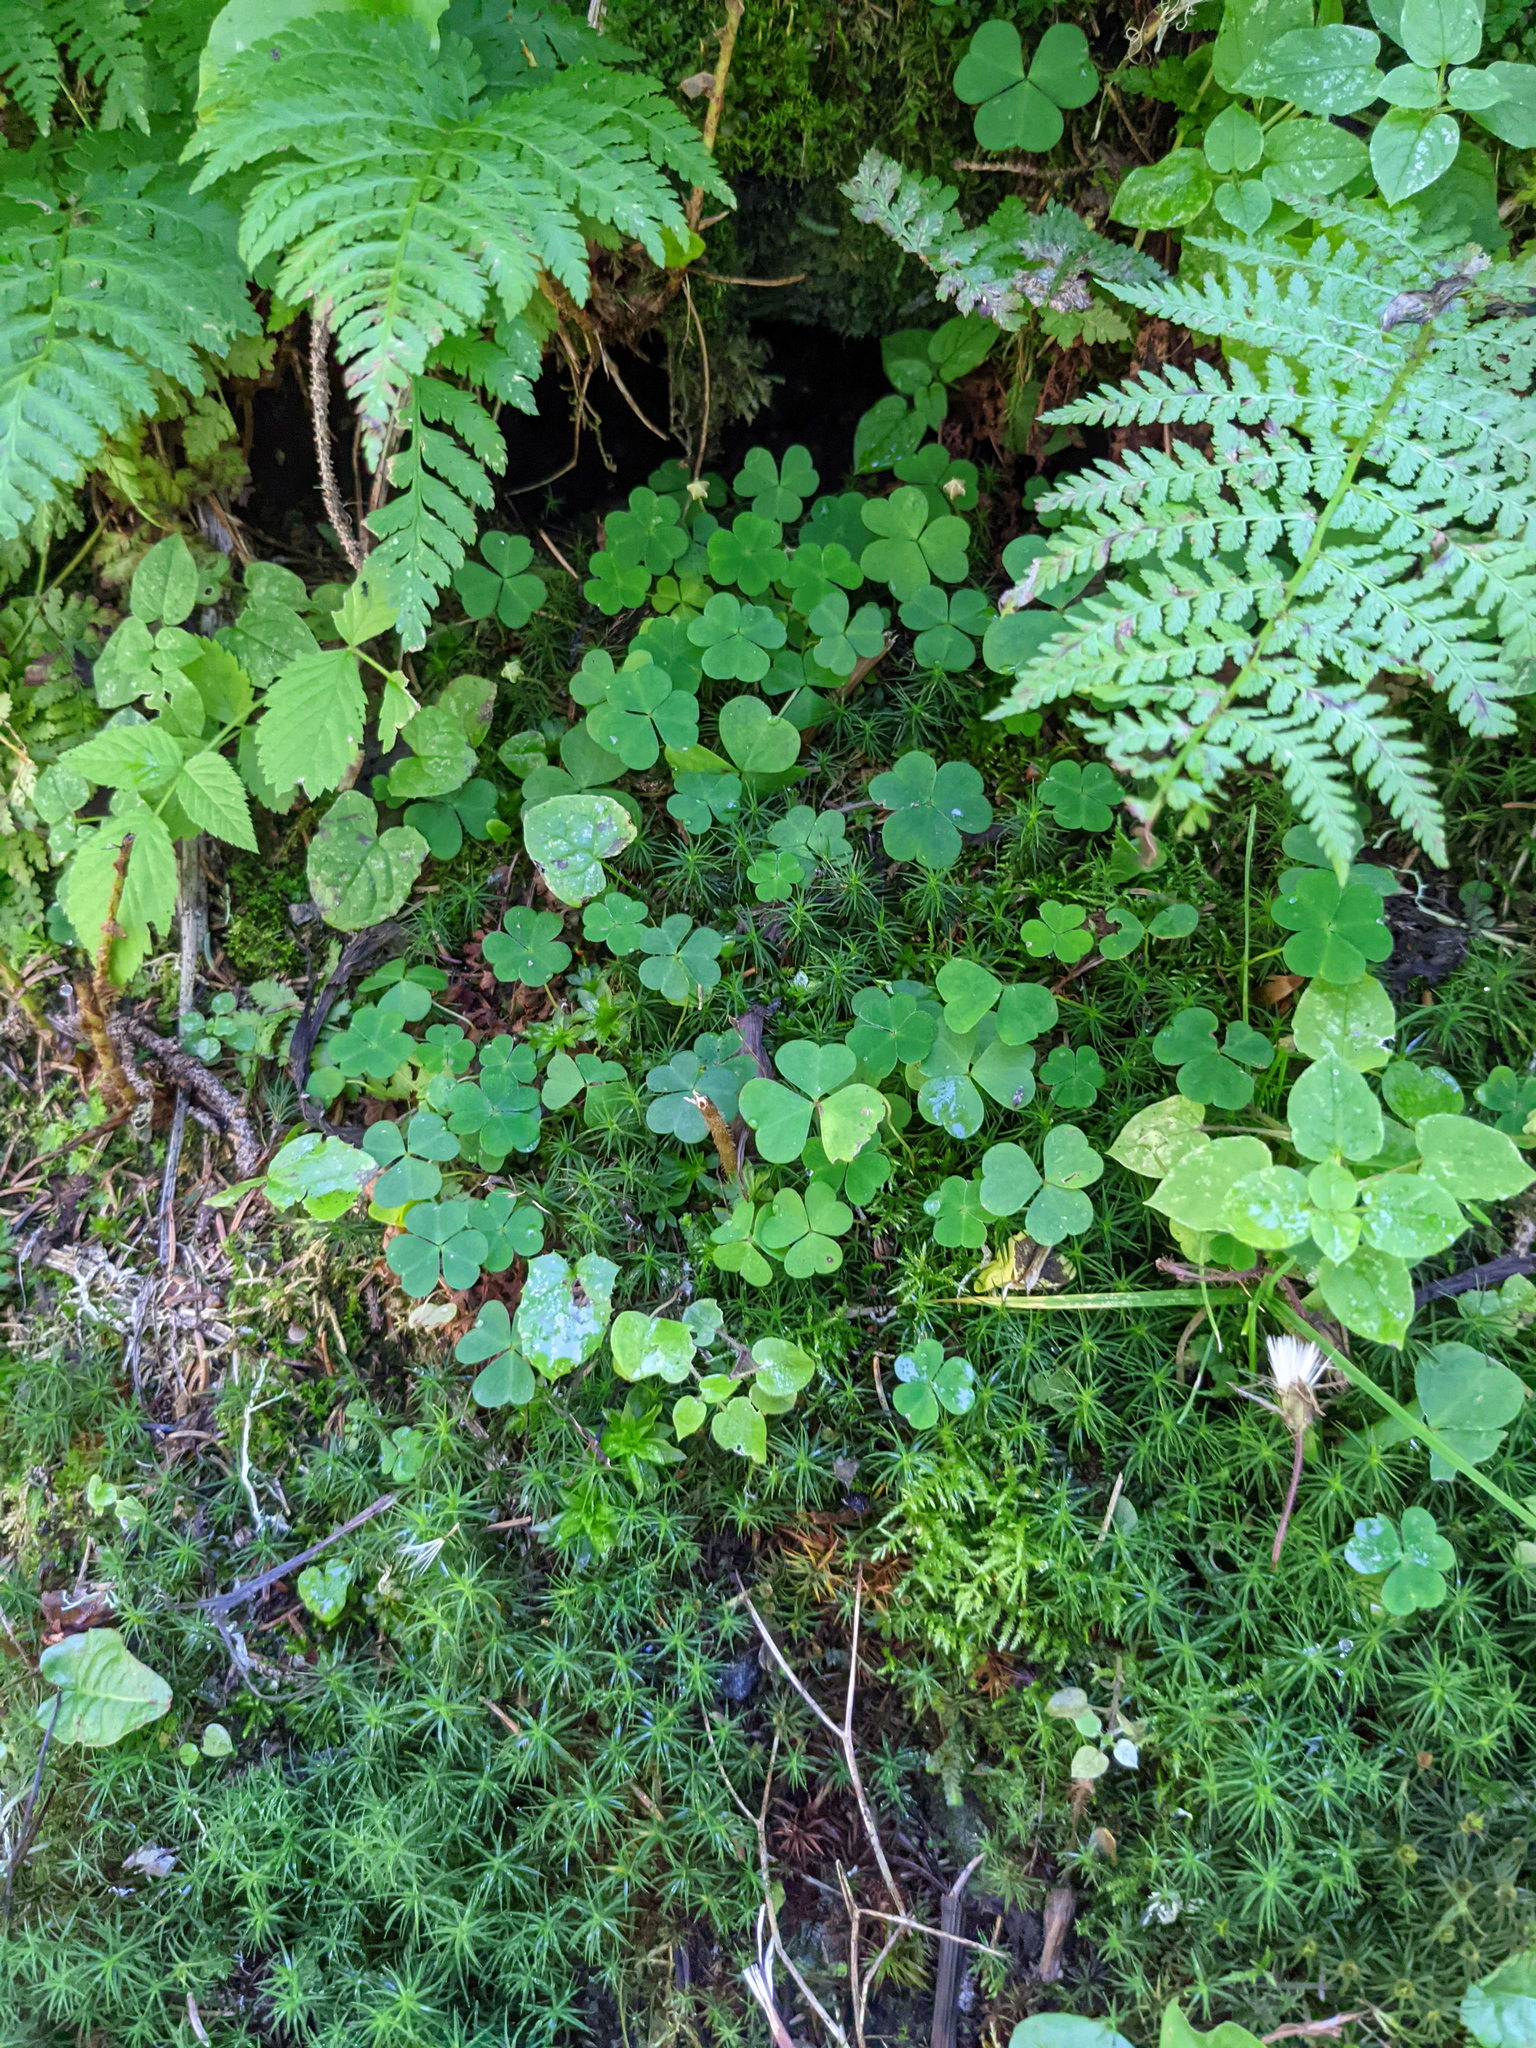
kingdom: Plantae
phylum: Tracheophyta
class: Magnoliopsida
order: Oxalidales
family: Oxalidaceae
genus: Oxalis
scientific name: Oxalis acetosella
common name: Wood-sorrel
